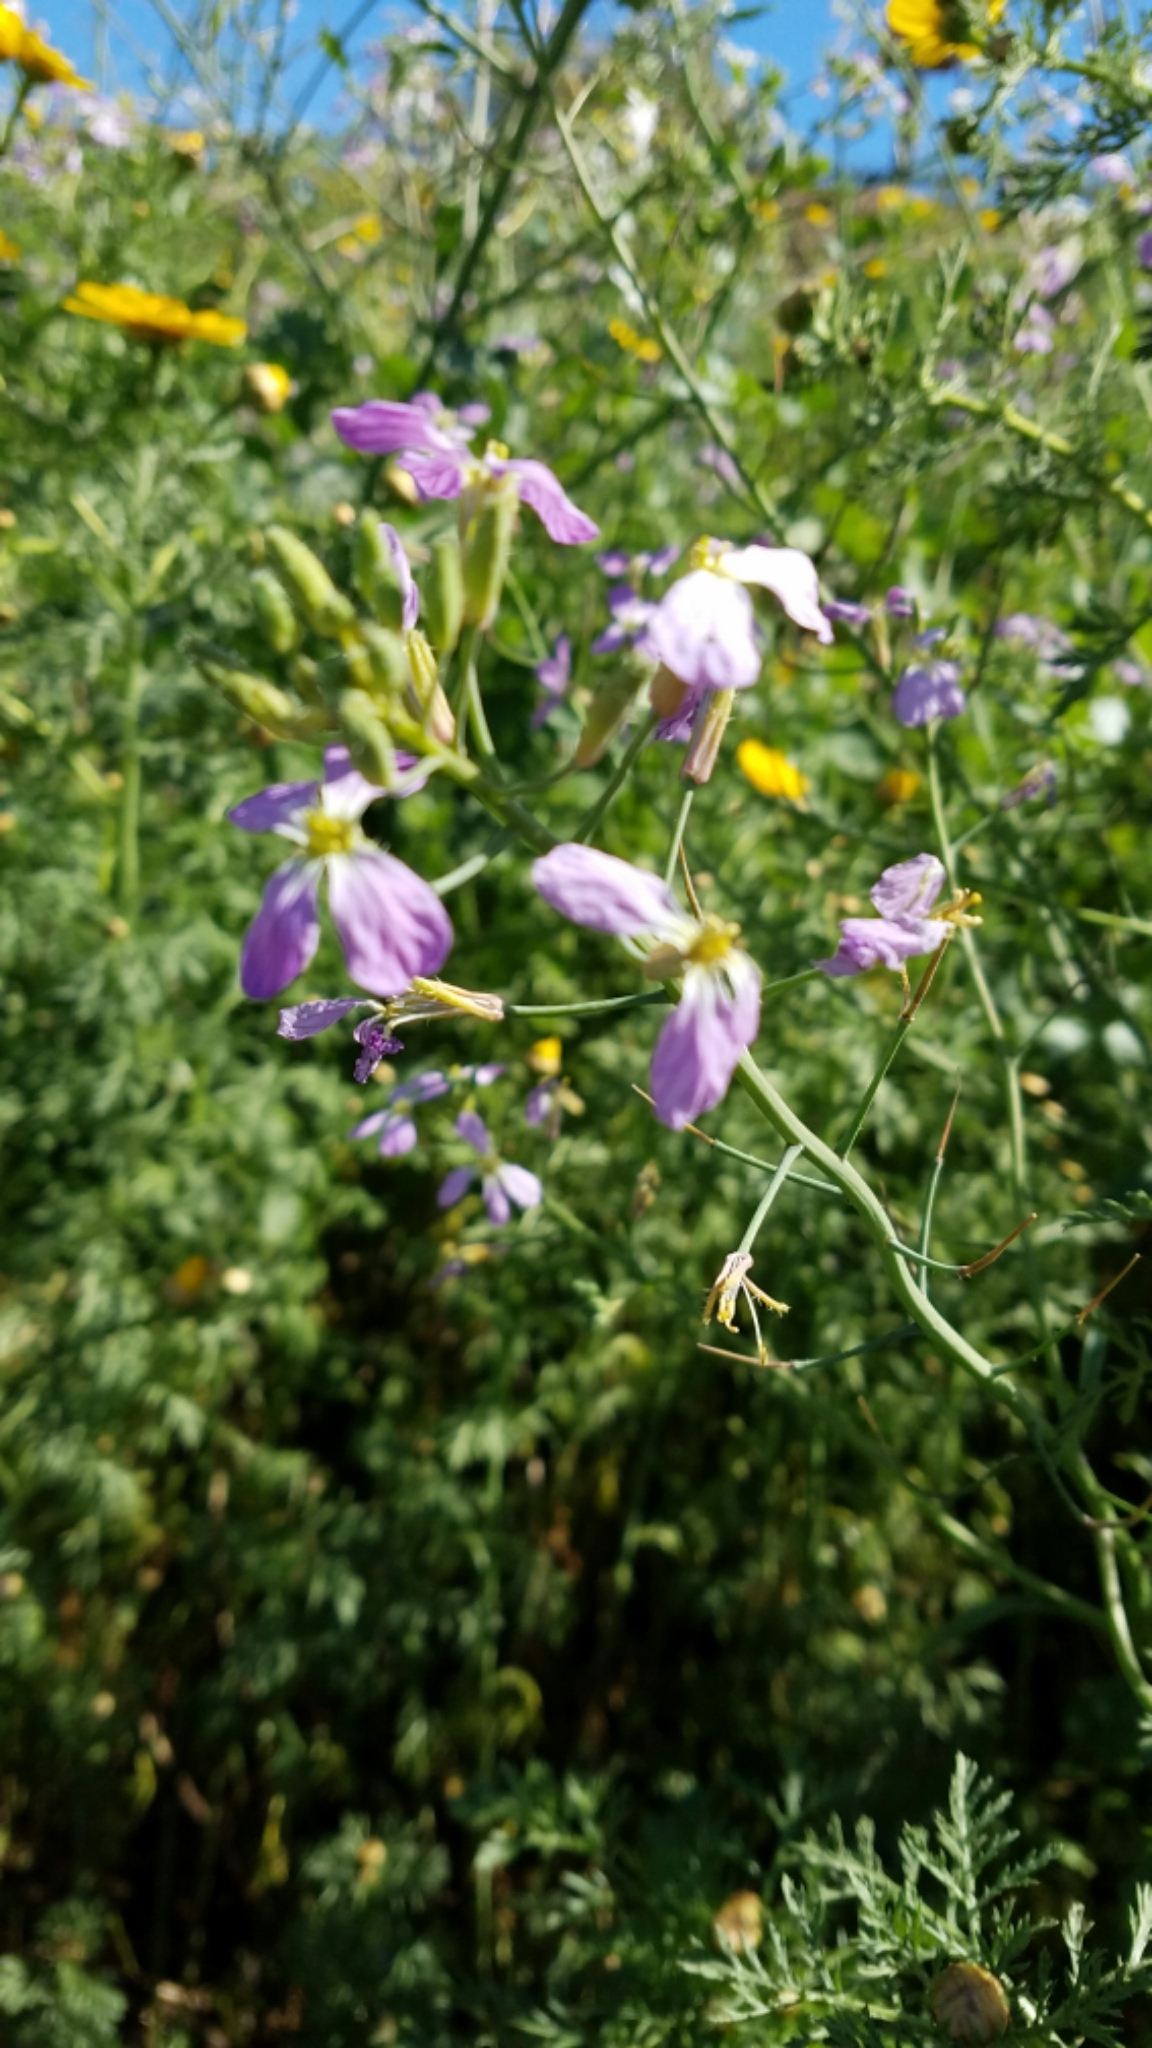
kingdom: Plantae
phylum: Tracheophyta
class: Magnoliopsida
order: Brassicales
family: Brassicaceae
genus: Raphanus
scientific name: Raphanus sativus
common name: Cultivated radish
